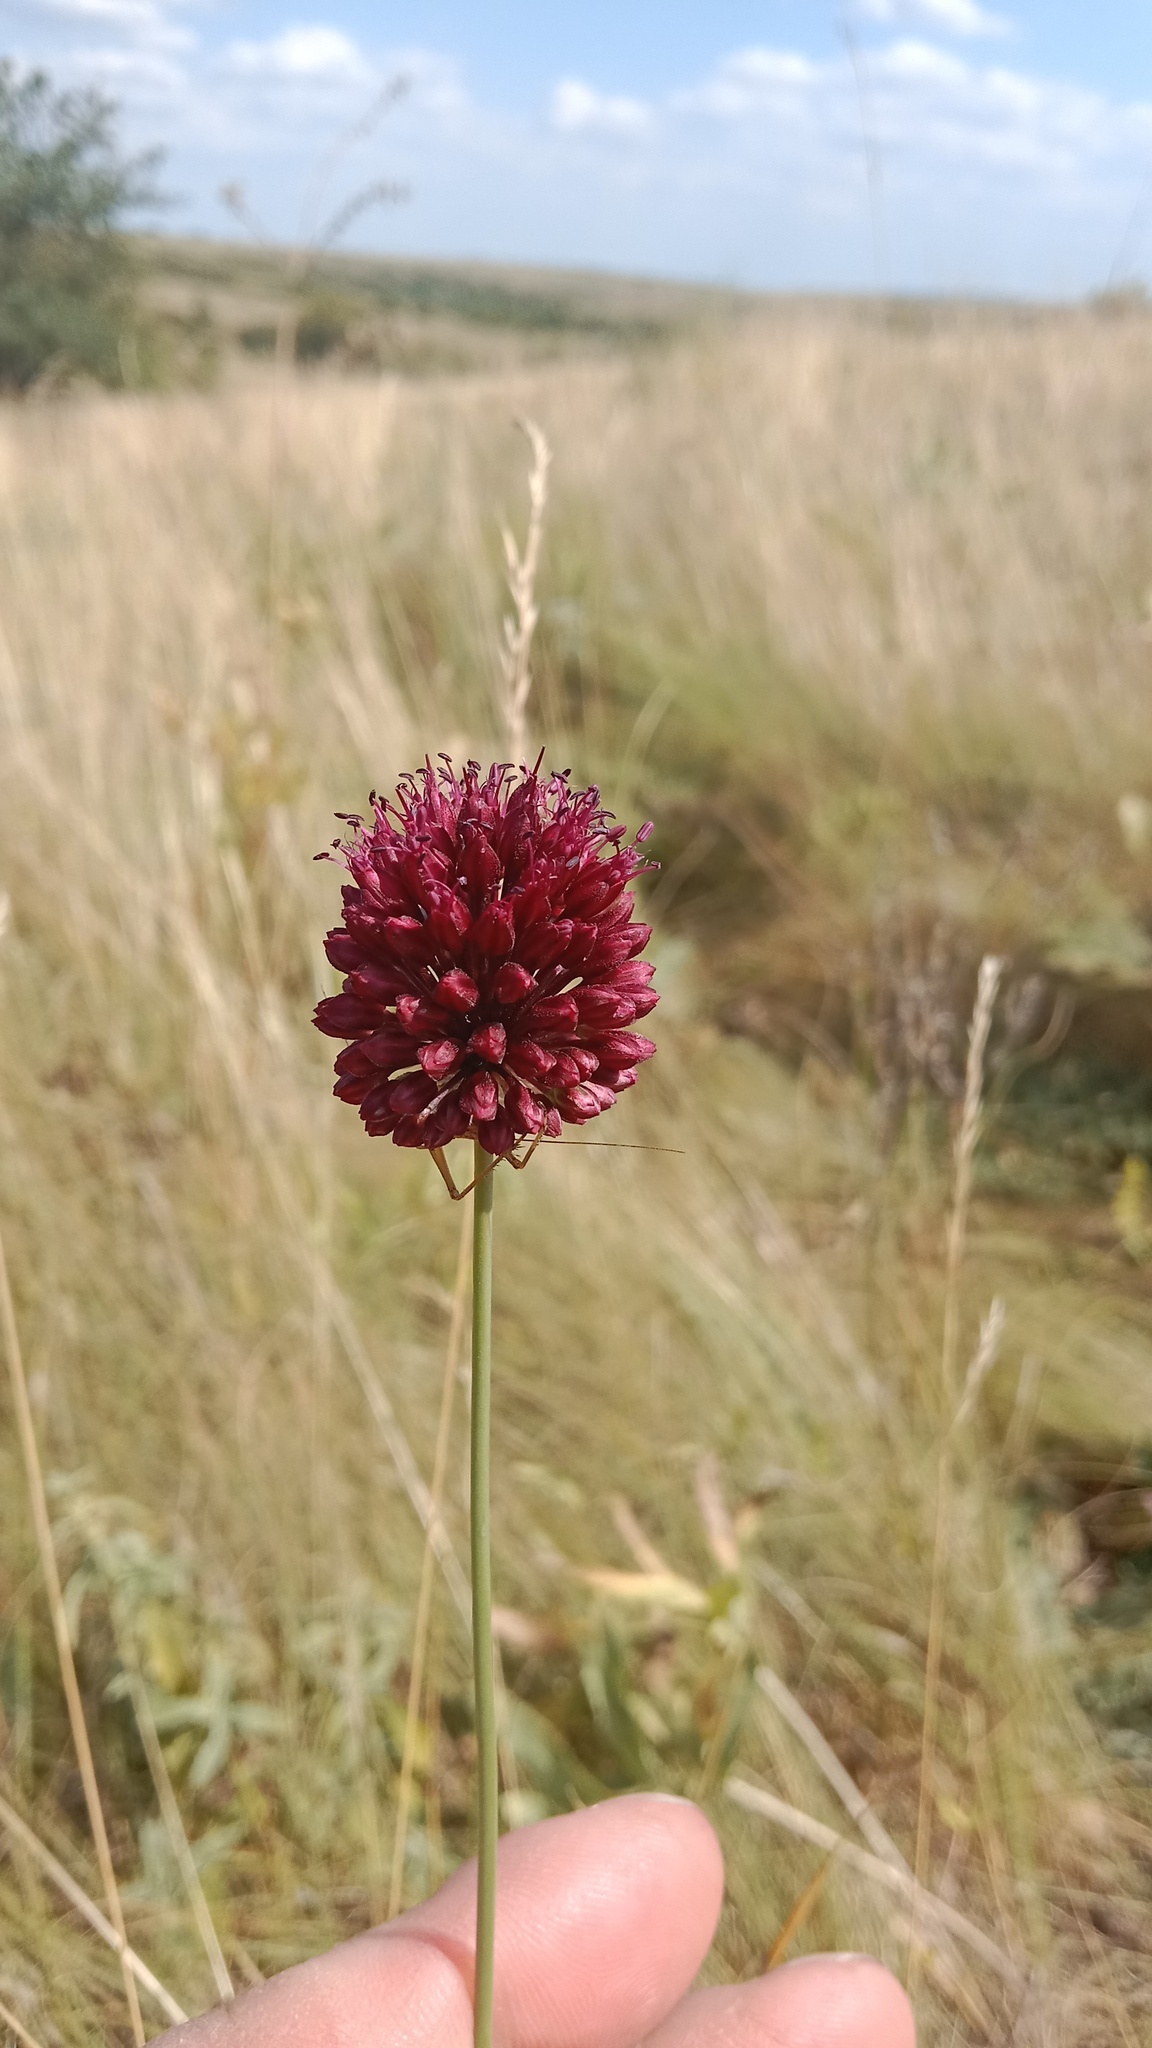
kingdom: Plantae
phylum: Tracheophyta
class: Liliopsida
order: Asparagales
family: Amaryllidaceae
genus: Allium
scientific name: Allium sphaerocephalon
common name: Round-headed leek
